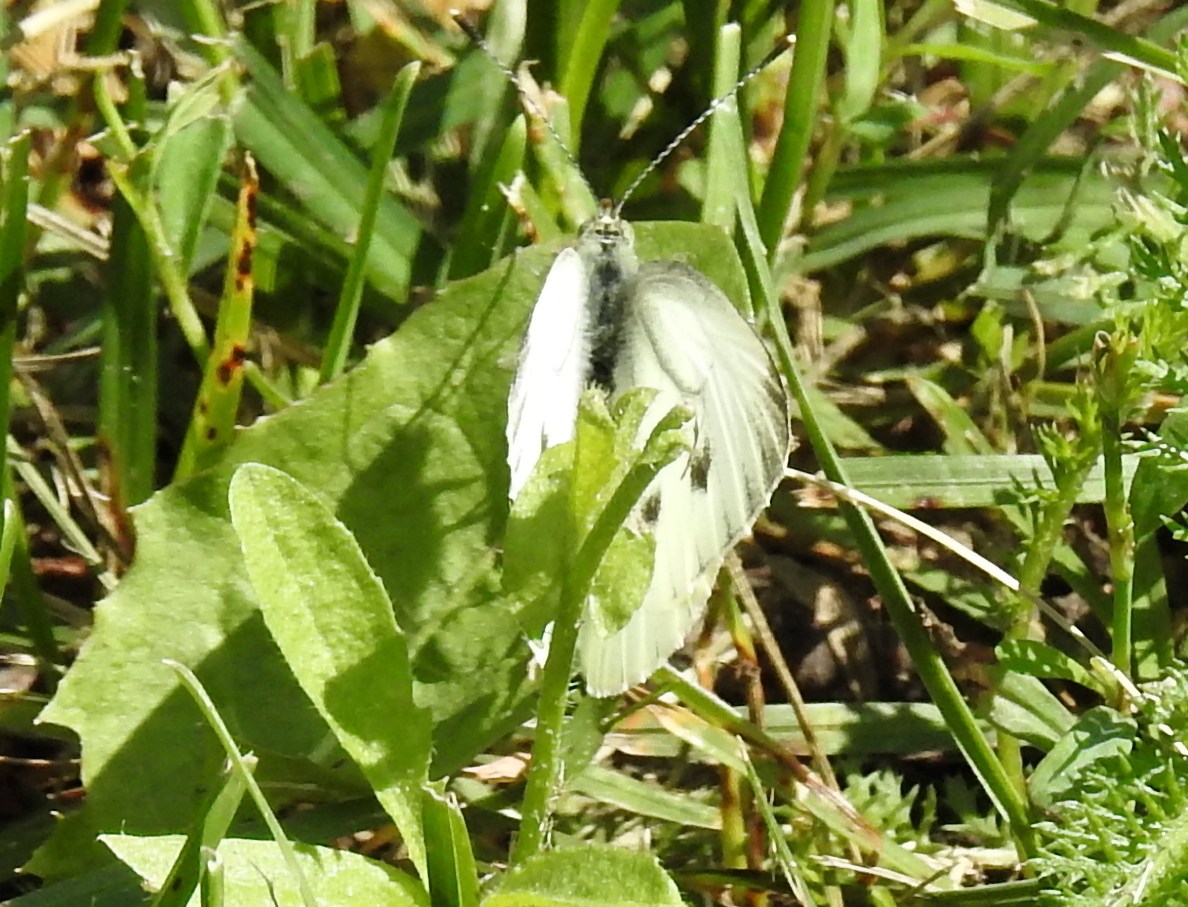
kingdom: Animalia
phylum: Arthropoda
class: Insecta
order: Lepidoptera
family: Pieridae
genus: Pieris
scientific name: Pieris napi
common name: Green-veined white
